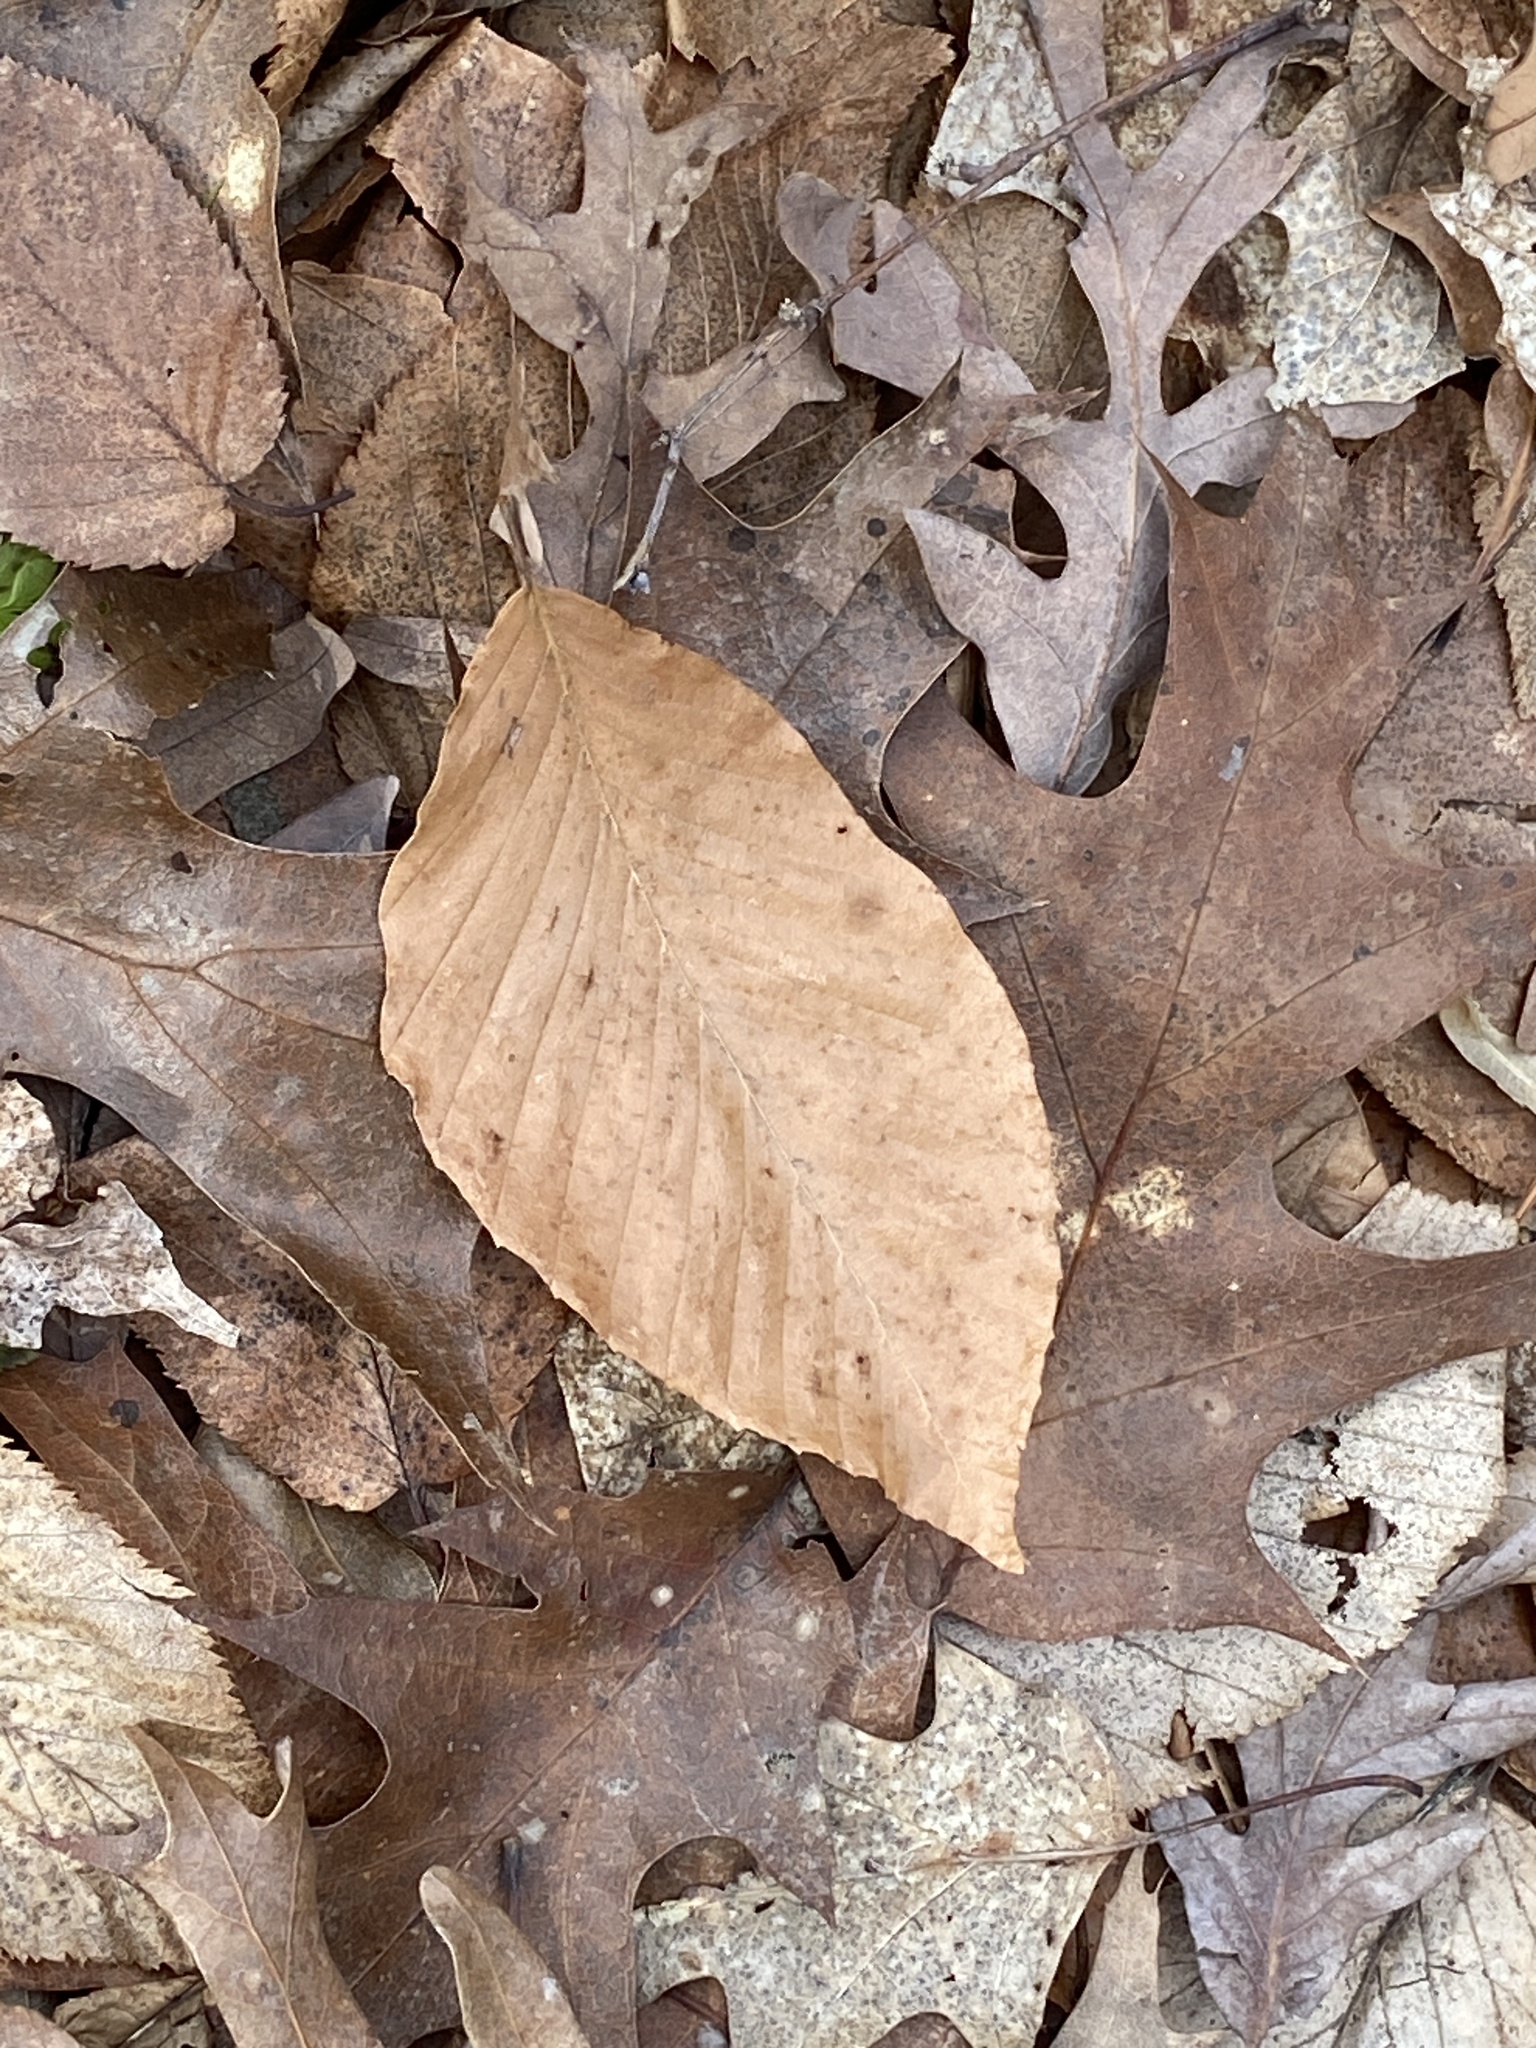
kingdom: Plantae
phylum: Tracheophyta
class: Magnoliopsida
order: Fagales
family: Fagaceae
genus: Fagus
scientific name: Fagus grandifolia
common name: American beech
